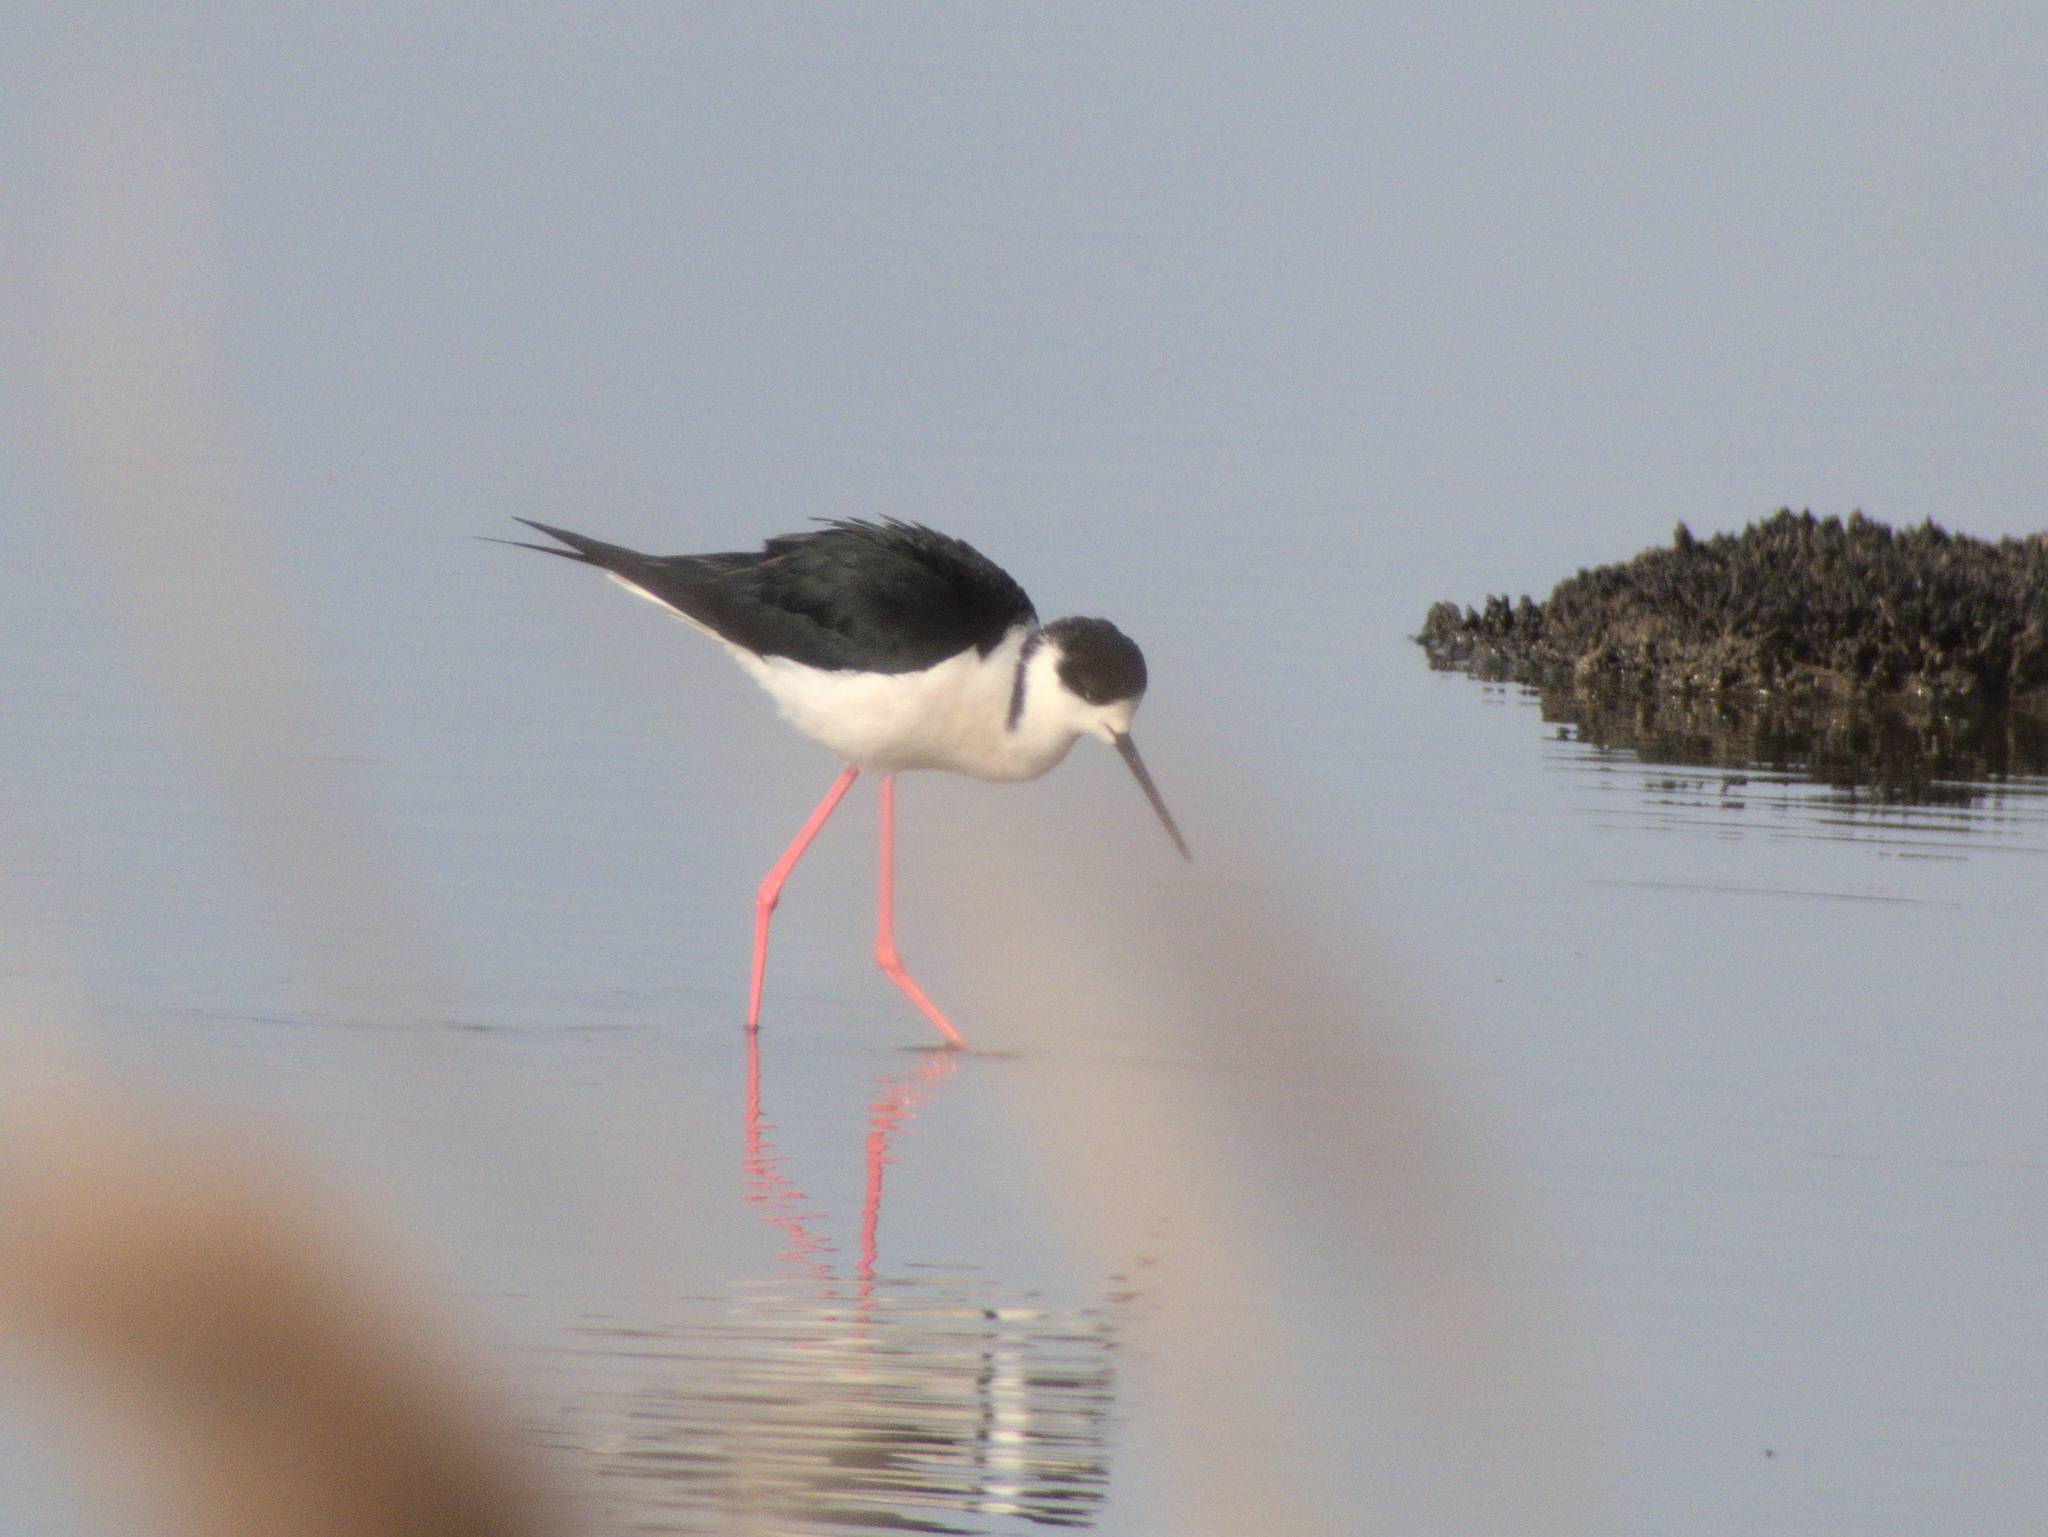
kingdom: Animalia
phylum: Chordata
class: Aves
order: Charadriiformes
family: Recurvirostridae
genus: Himantopus
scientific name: Himantopus himantopus
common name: Black-winged stilt
